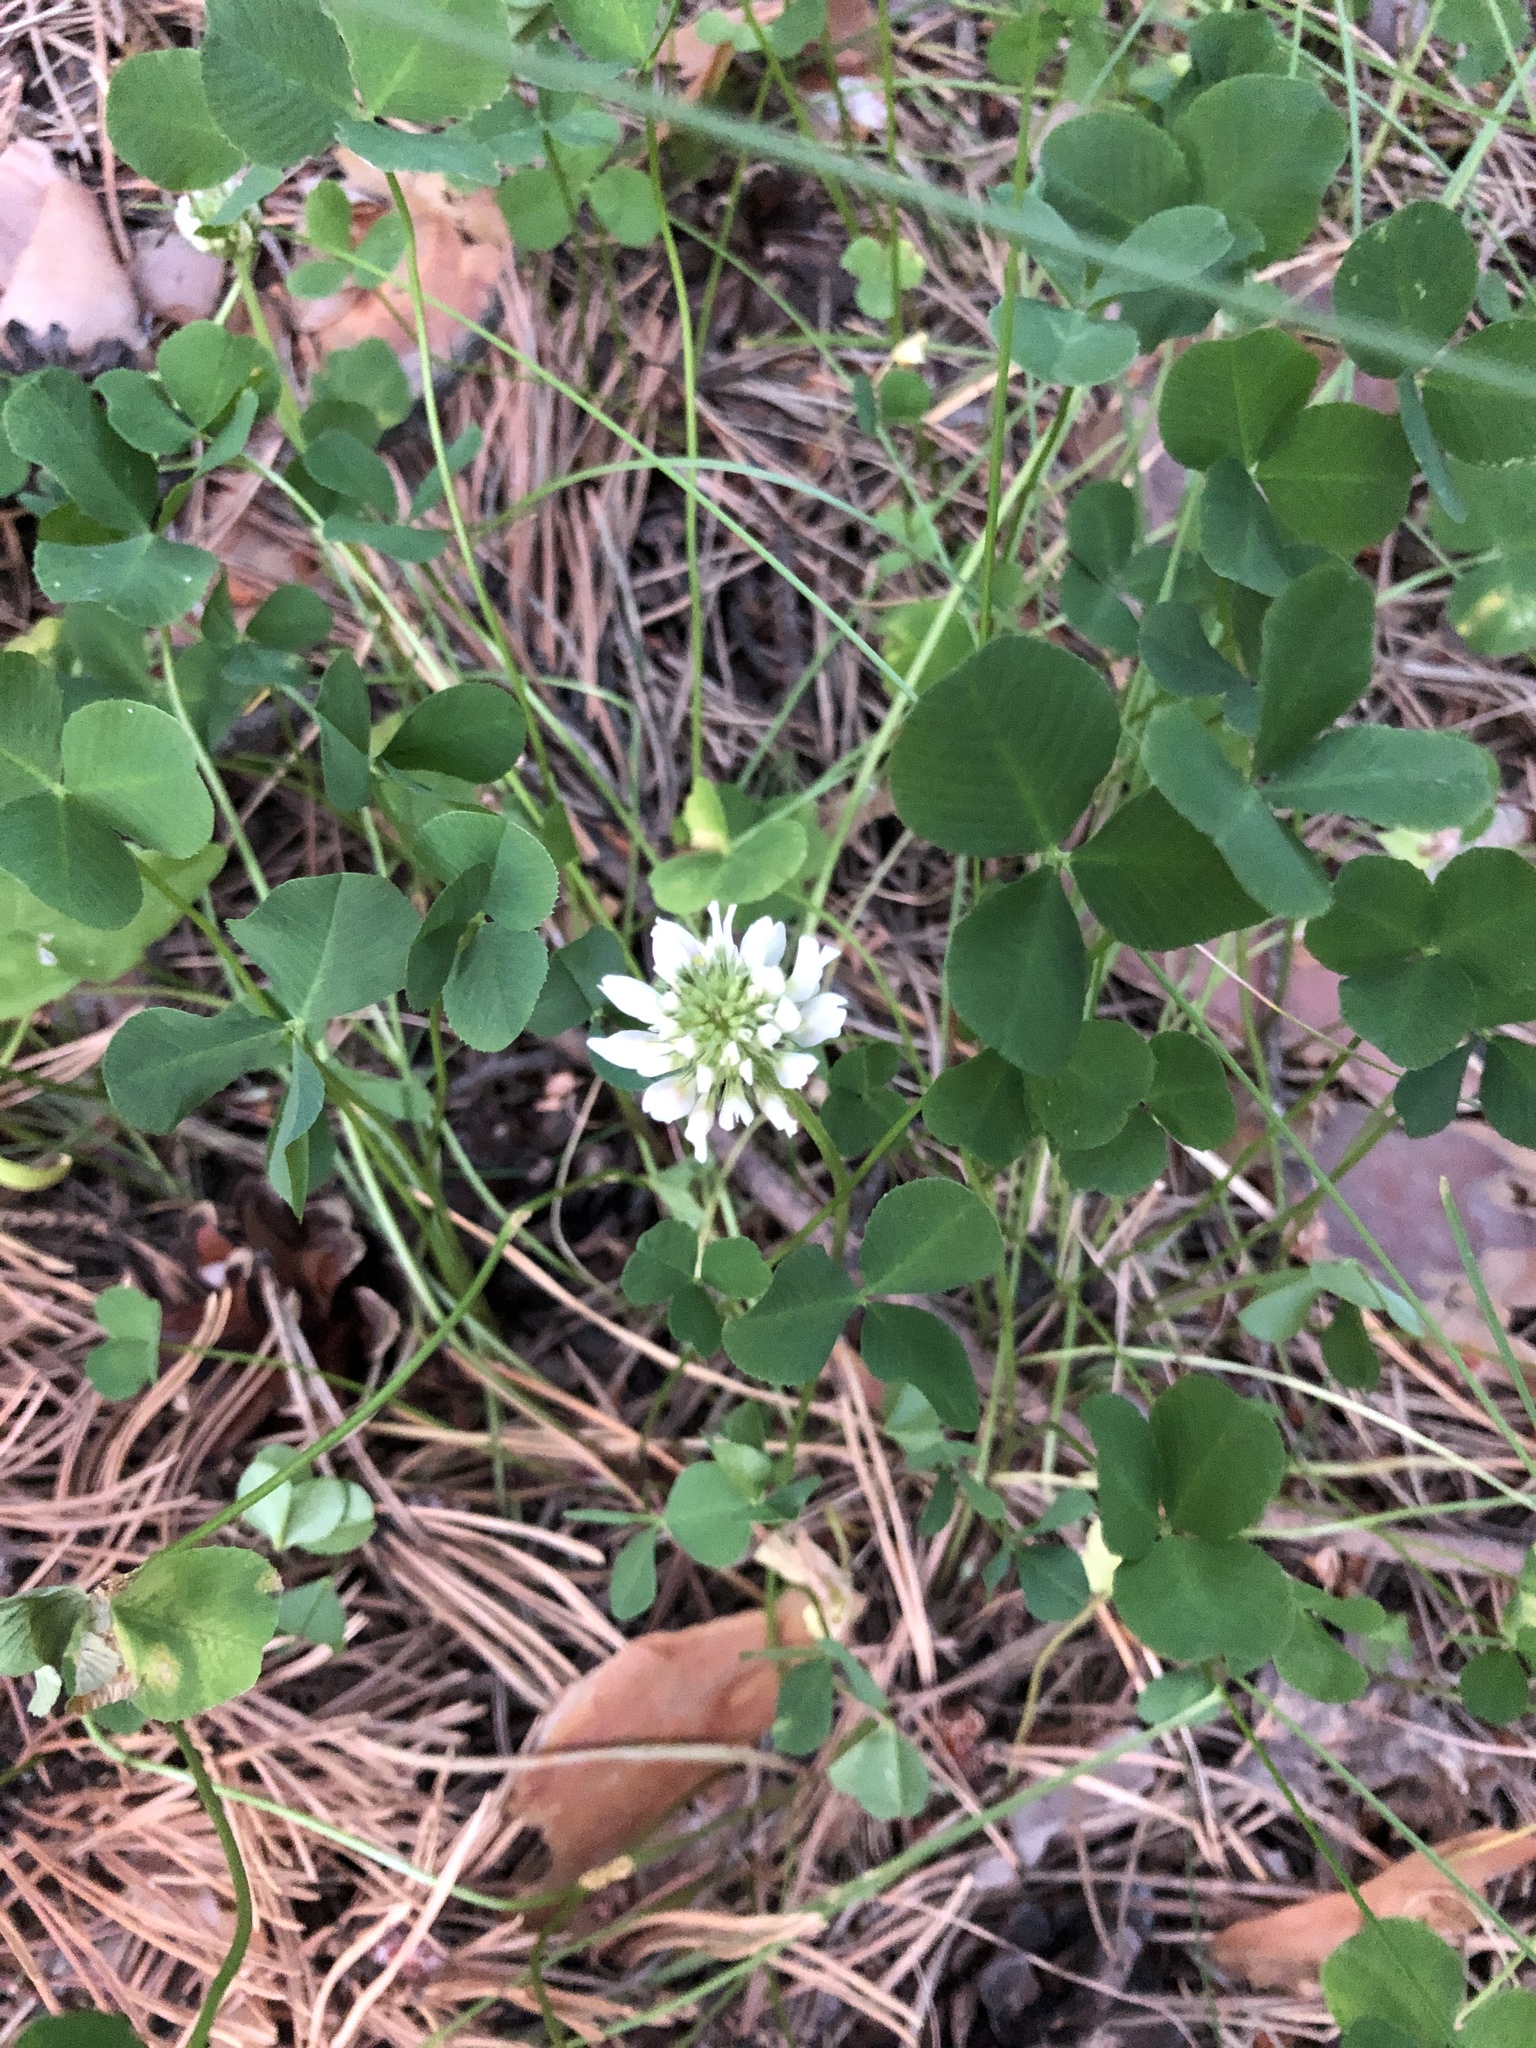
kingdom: Plantae
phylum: Tracheophyta
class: Magnoliopsida
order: Fabales
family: Fabaceae
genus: Trifolium
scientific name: Trifolium repens
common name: White clover
